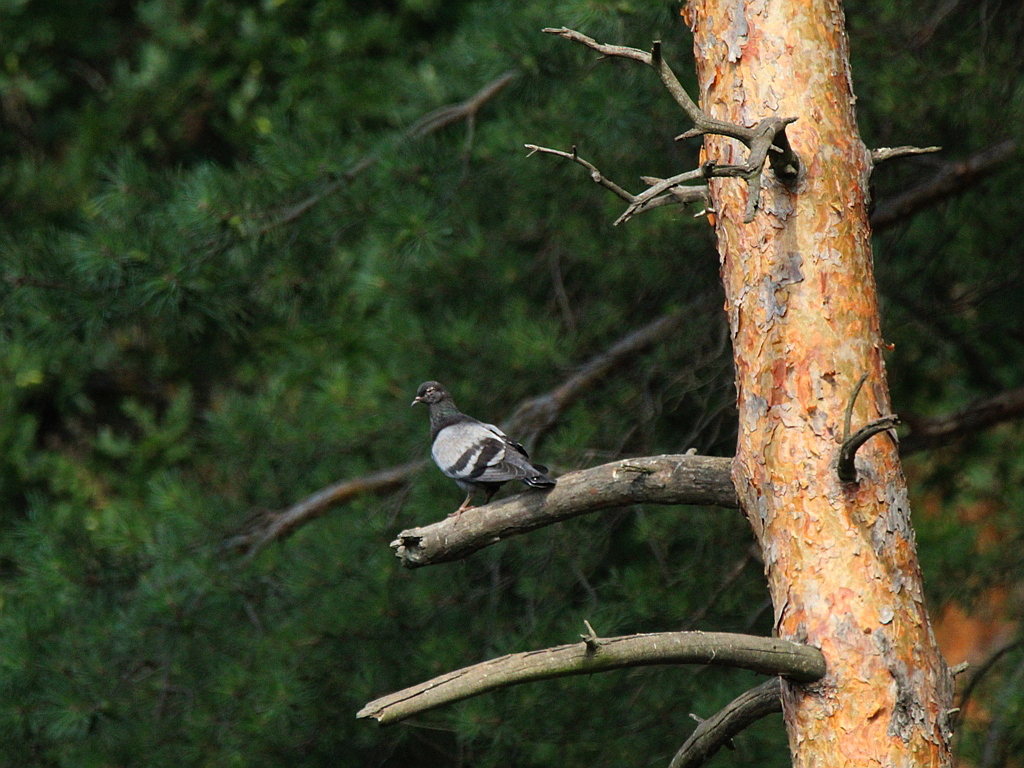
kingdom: Animalia
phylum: Chordata
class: Aves
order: Columbiformes
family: Columbidae
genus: Columba
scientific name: Columba livia
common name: Rock pigeon
